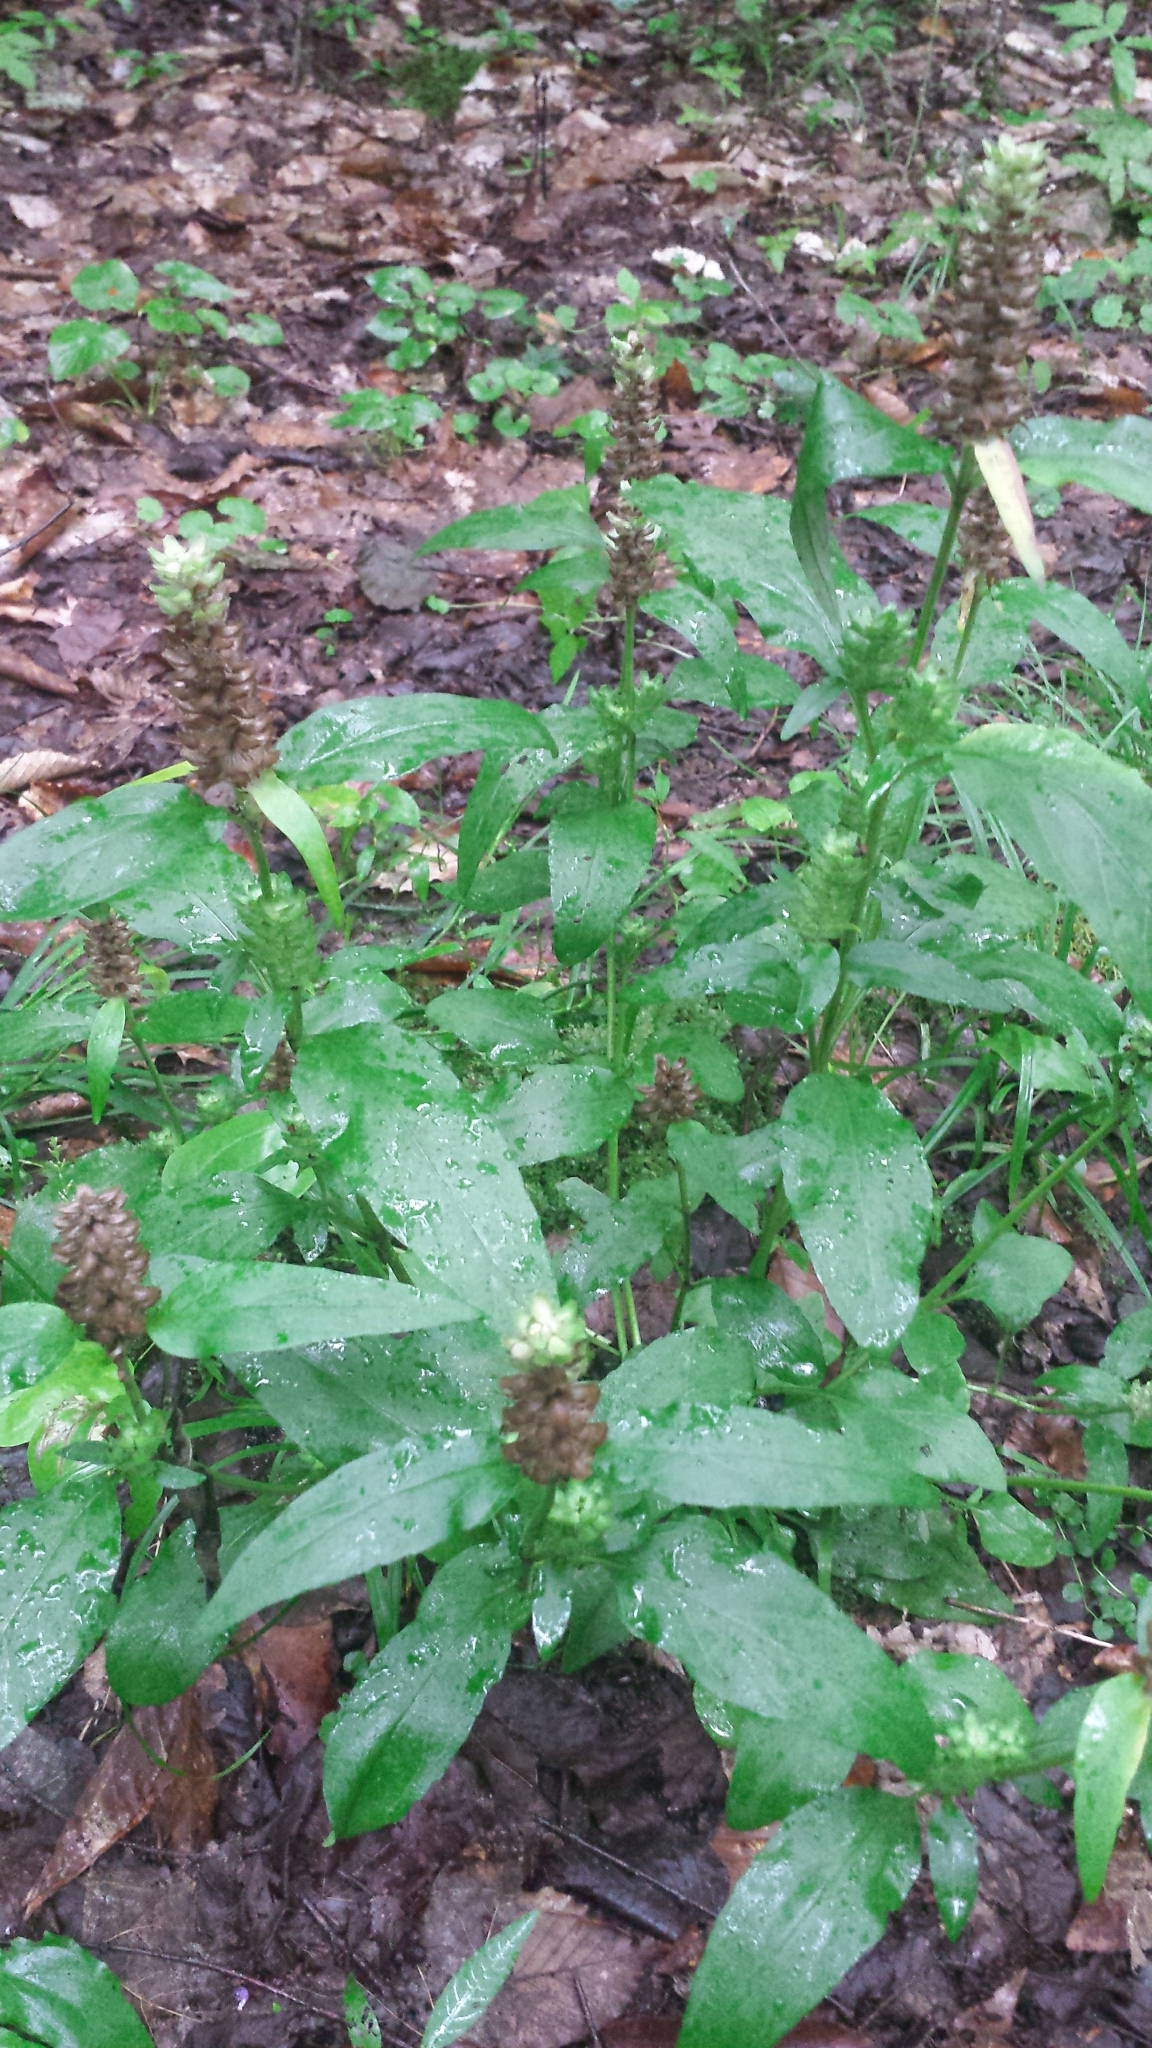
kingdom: Plantae
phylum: Tracheophyta
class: Magnoliopsida
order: Lamiales
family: Lamiaceae
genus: Prunella
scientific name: Prunella vulgaris
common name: Heal-all
